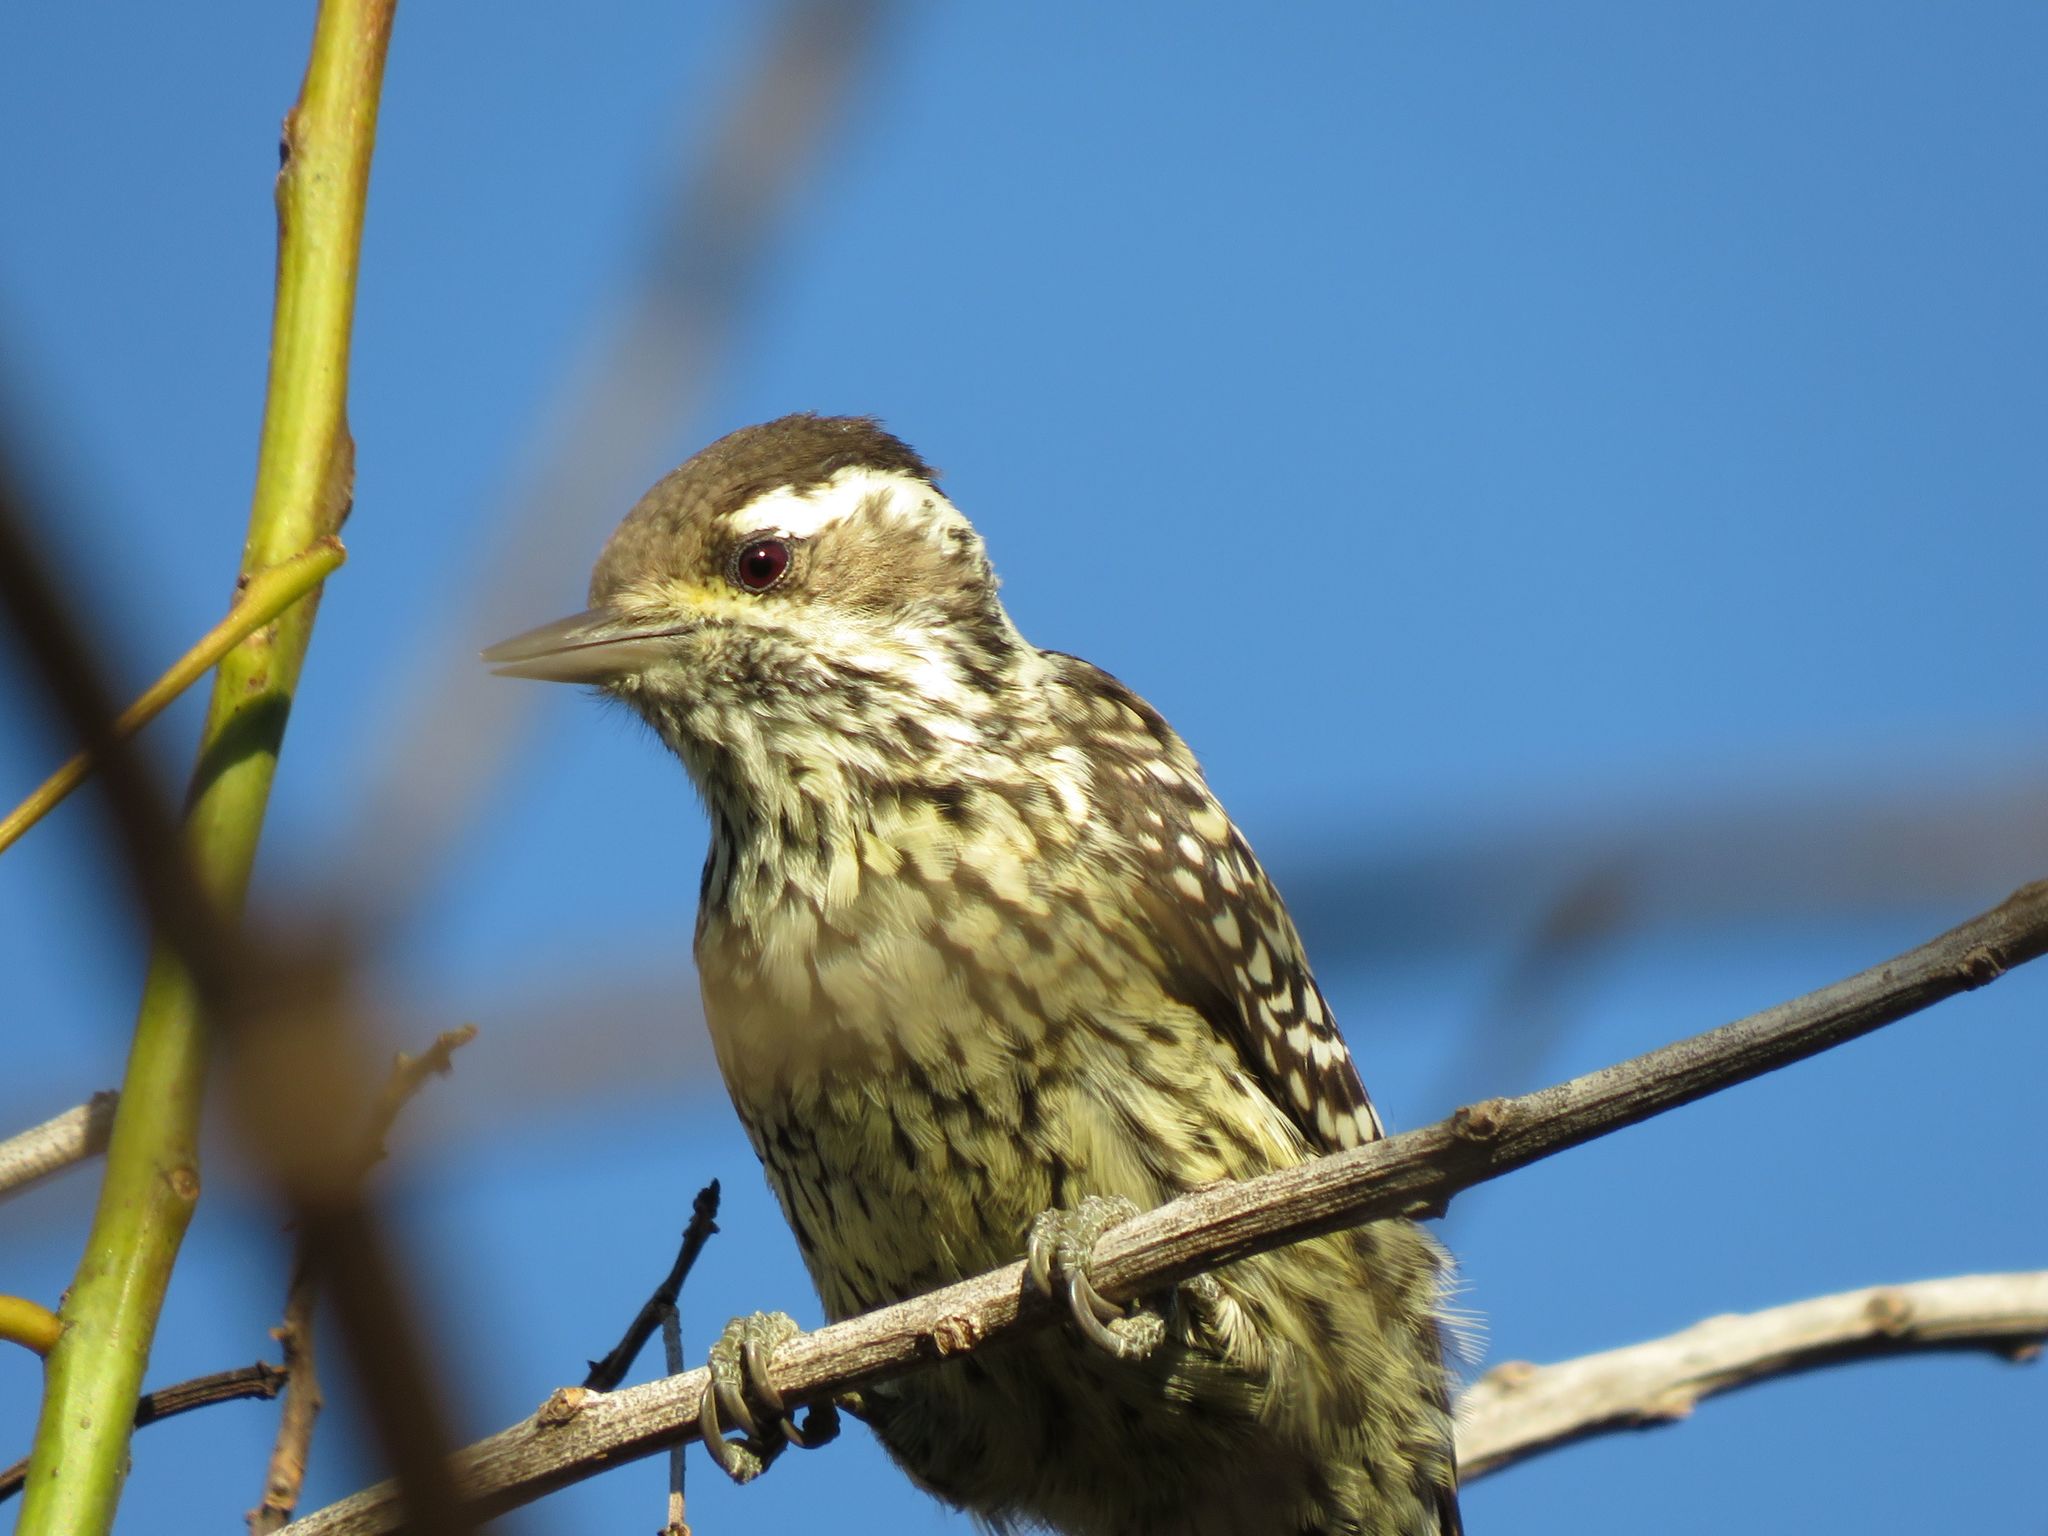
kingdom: Animalia
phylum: Chordata
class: Aves
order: Piciformes
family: Picidae
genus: Veniliornis
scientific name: Veniliornis mixtus
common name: Checkered woodpecker
